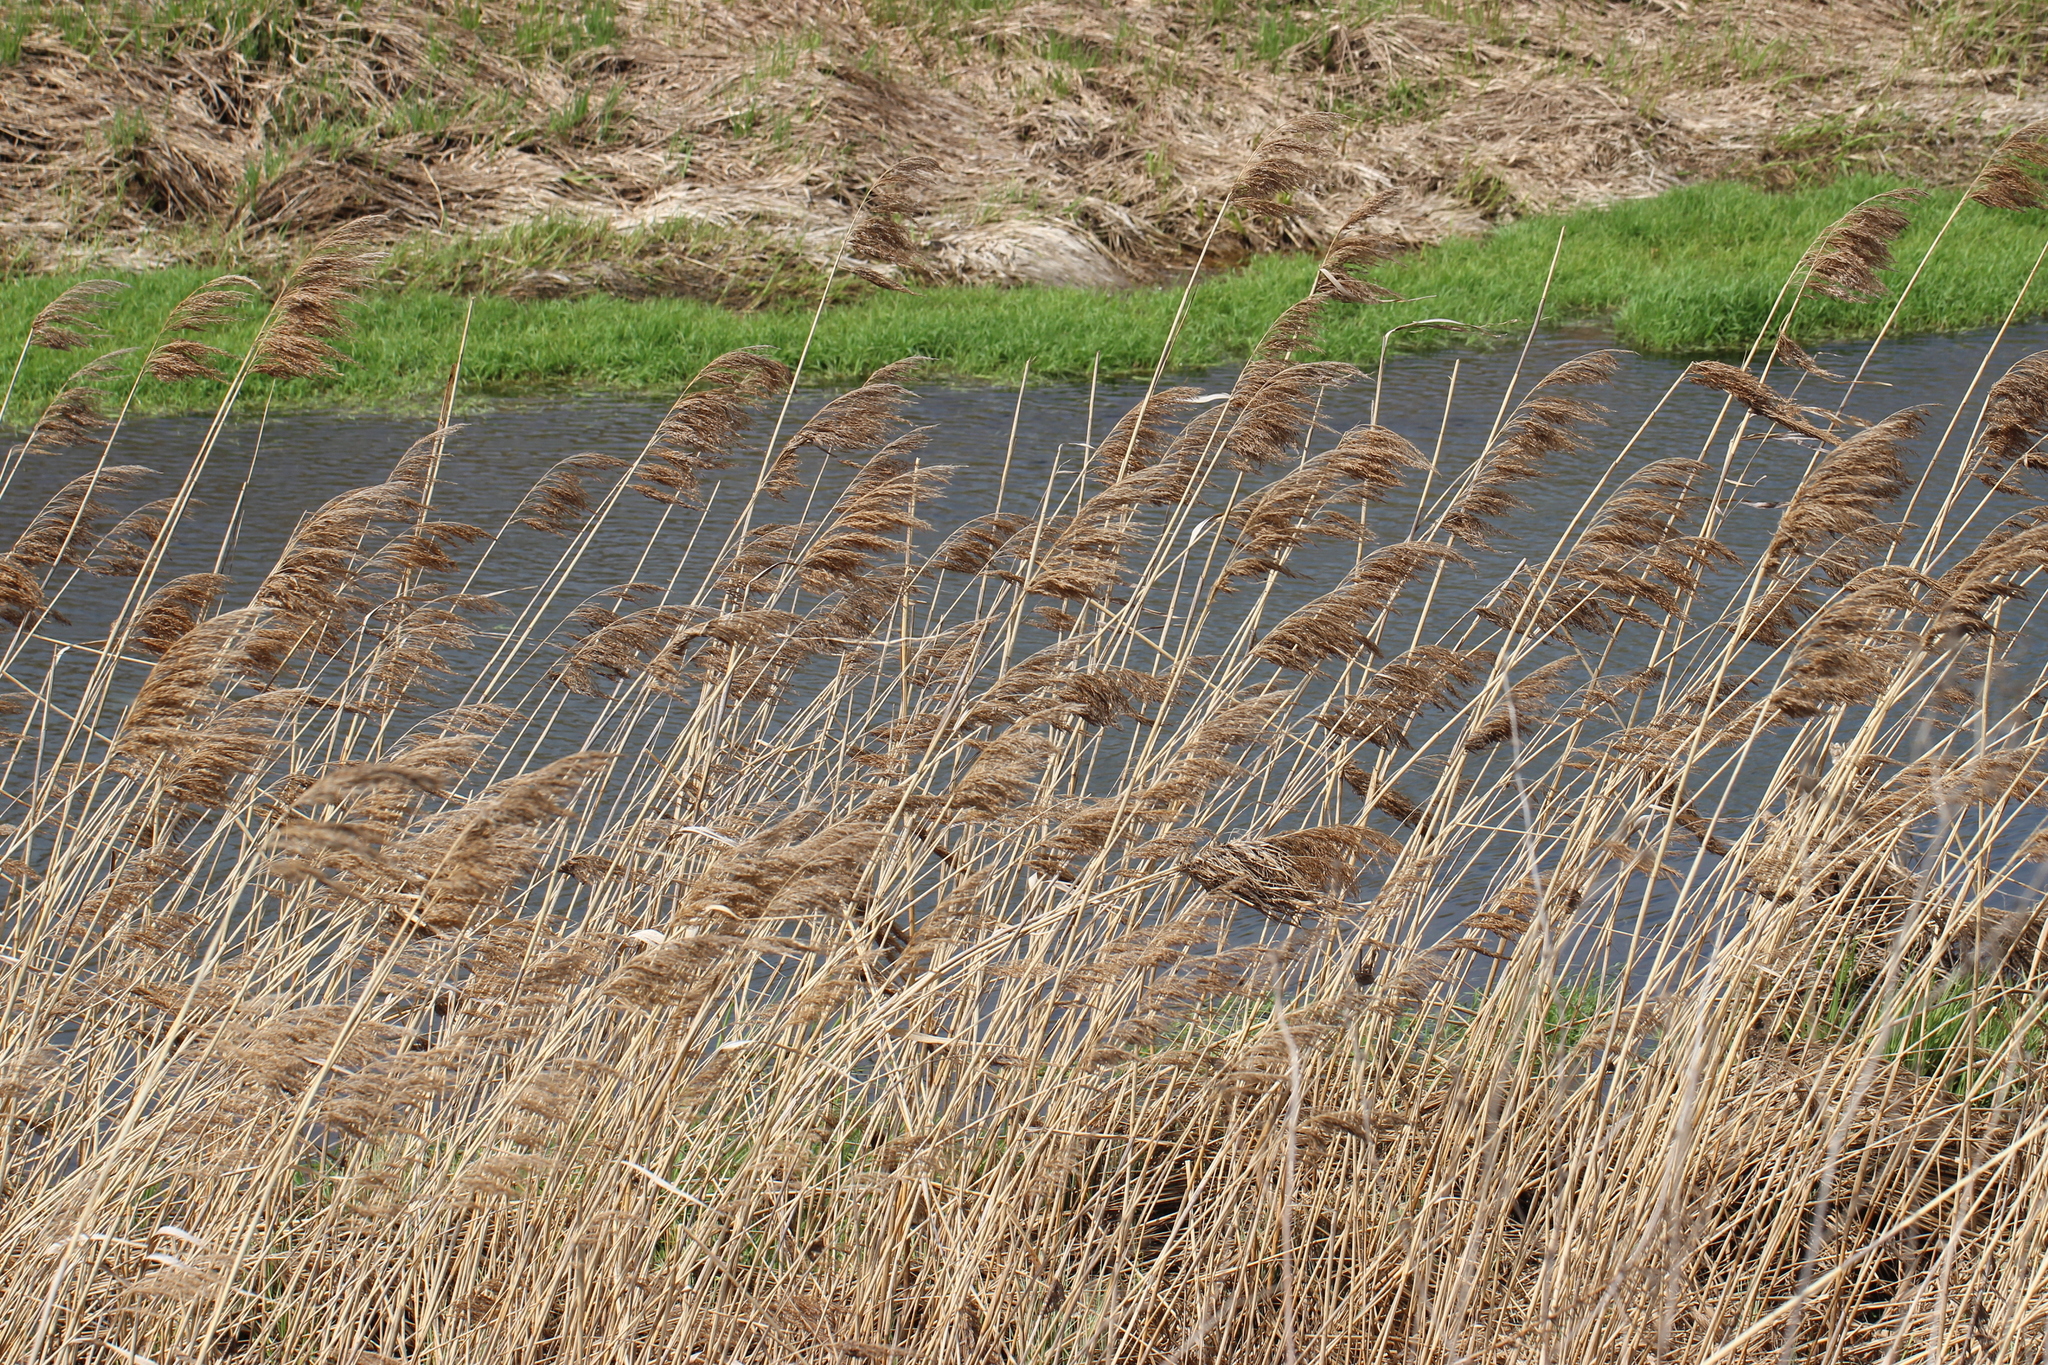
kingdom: Plantae
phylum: Tracheophyta
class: Liliopsida
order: Poales
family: Poaceae
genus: Phragmites
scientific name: Phragmites australis
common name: Common reed
